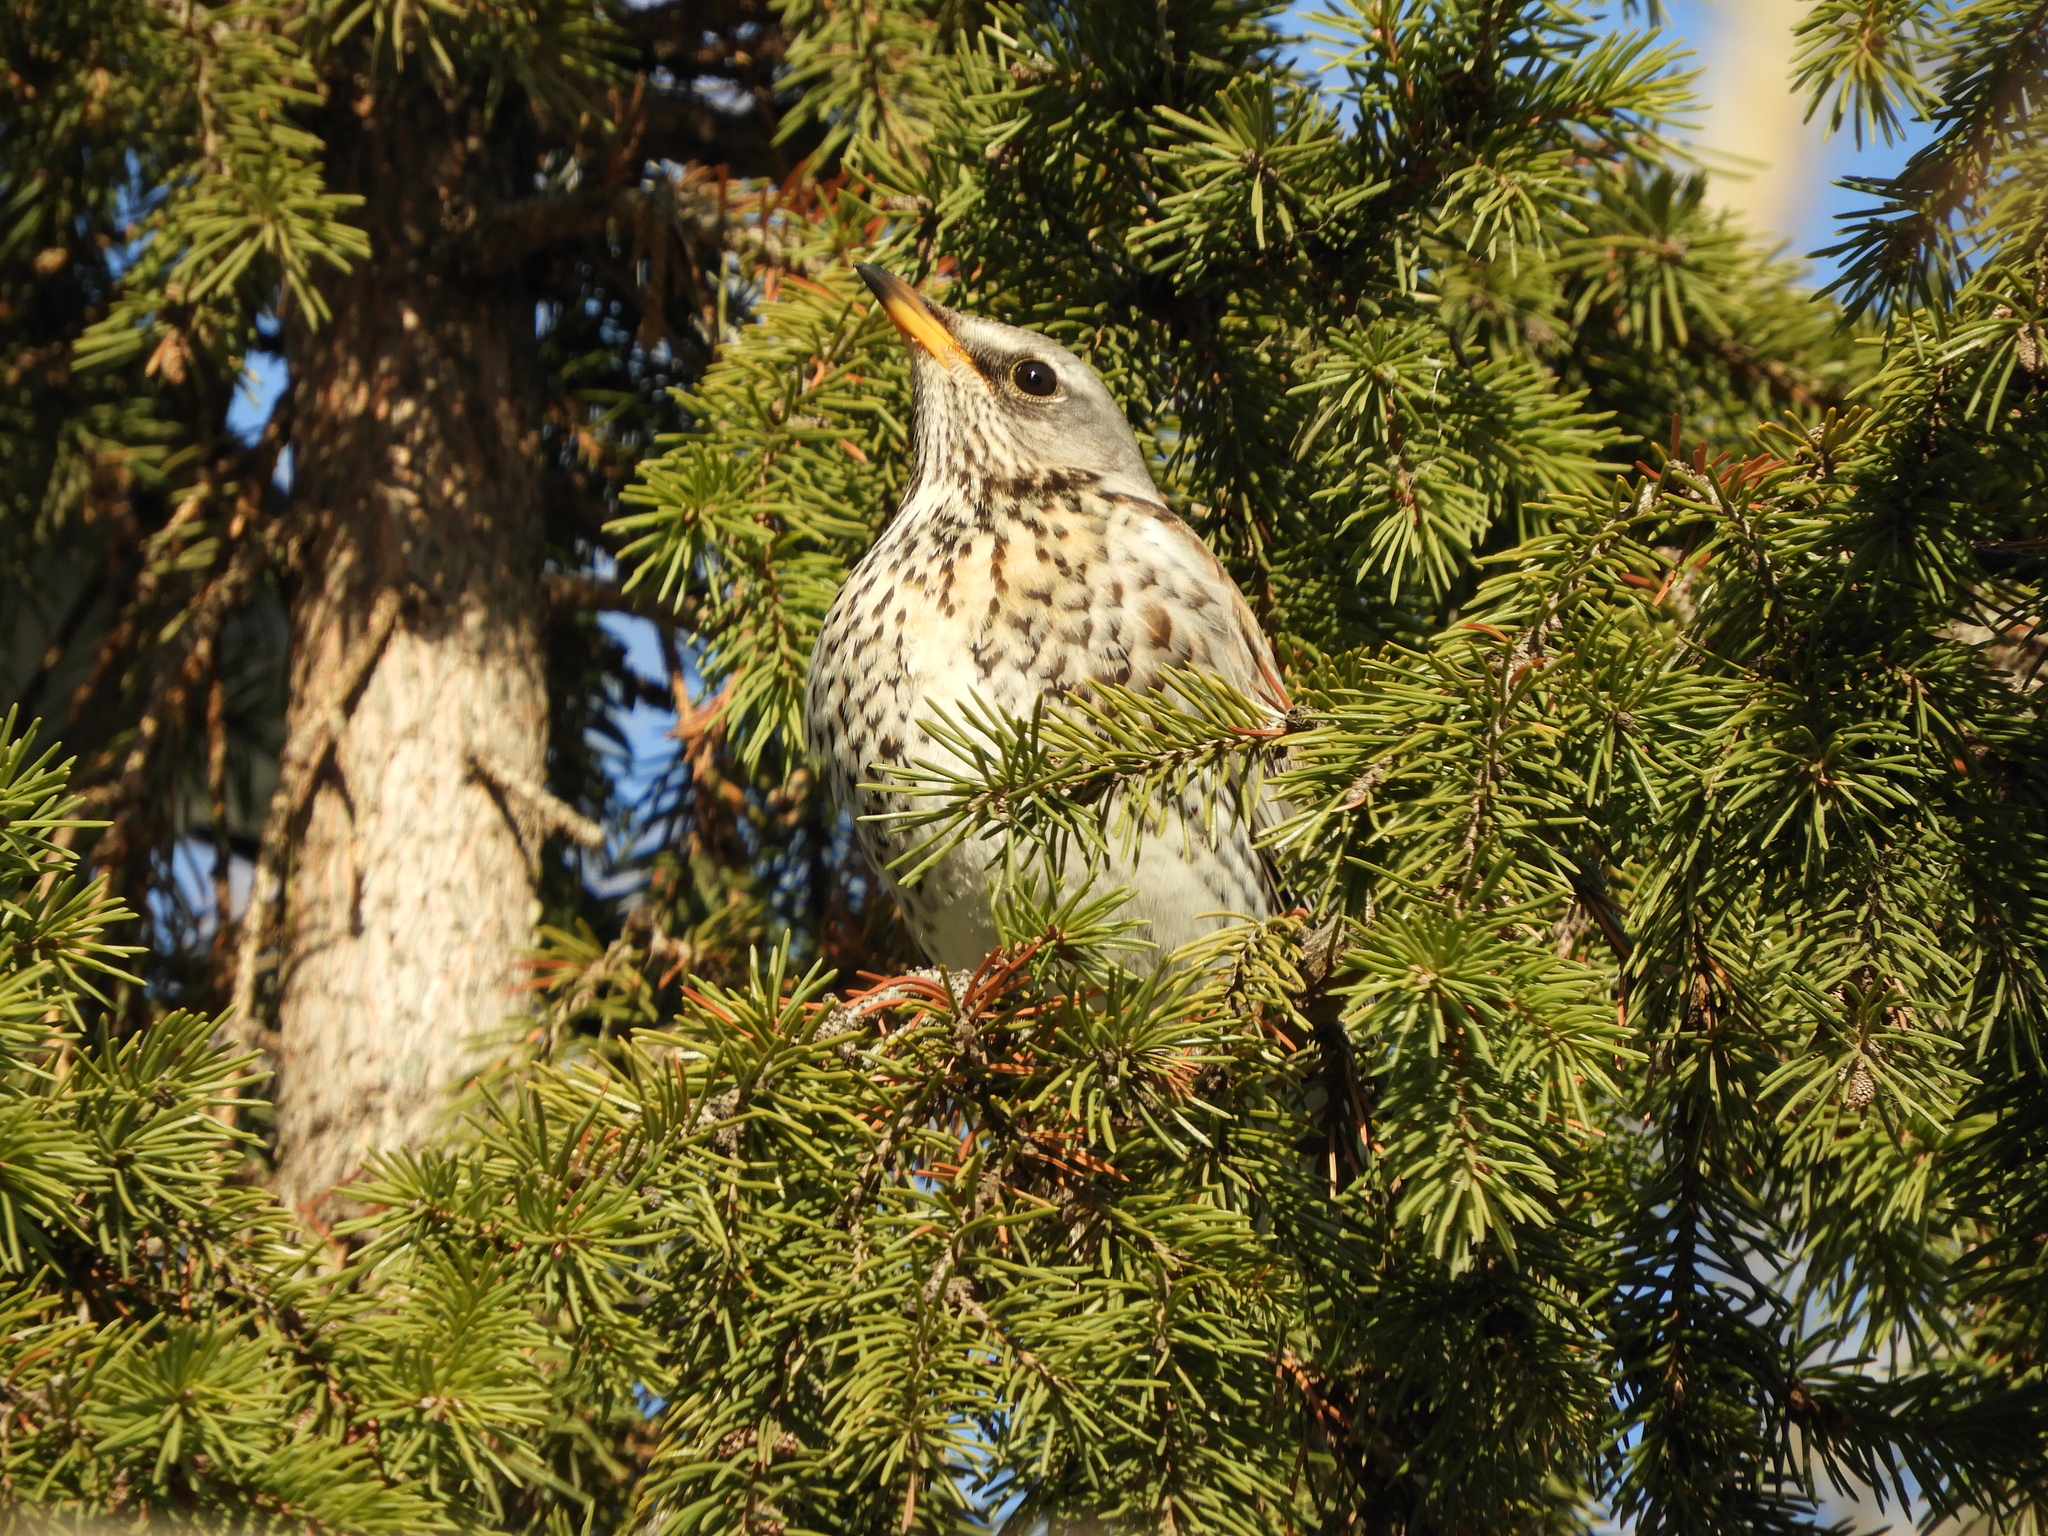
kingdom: Animalia
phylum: Chordata
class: Aves
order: Passeriformes
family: Turdidae
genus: Turdus
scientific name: Turdus pilaris
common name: Fieldfare
